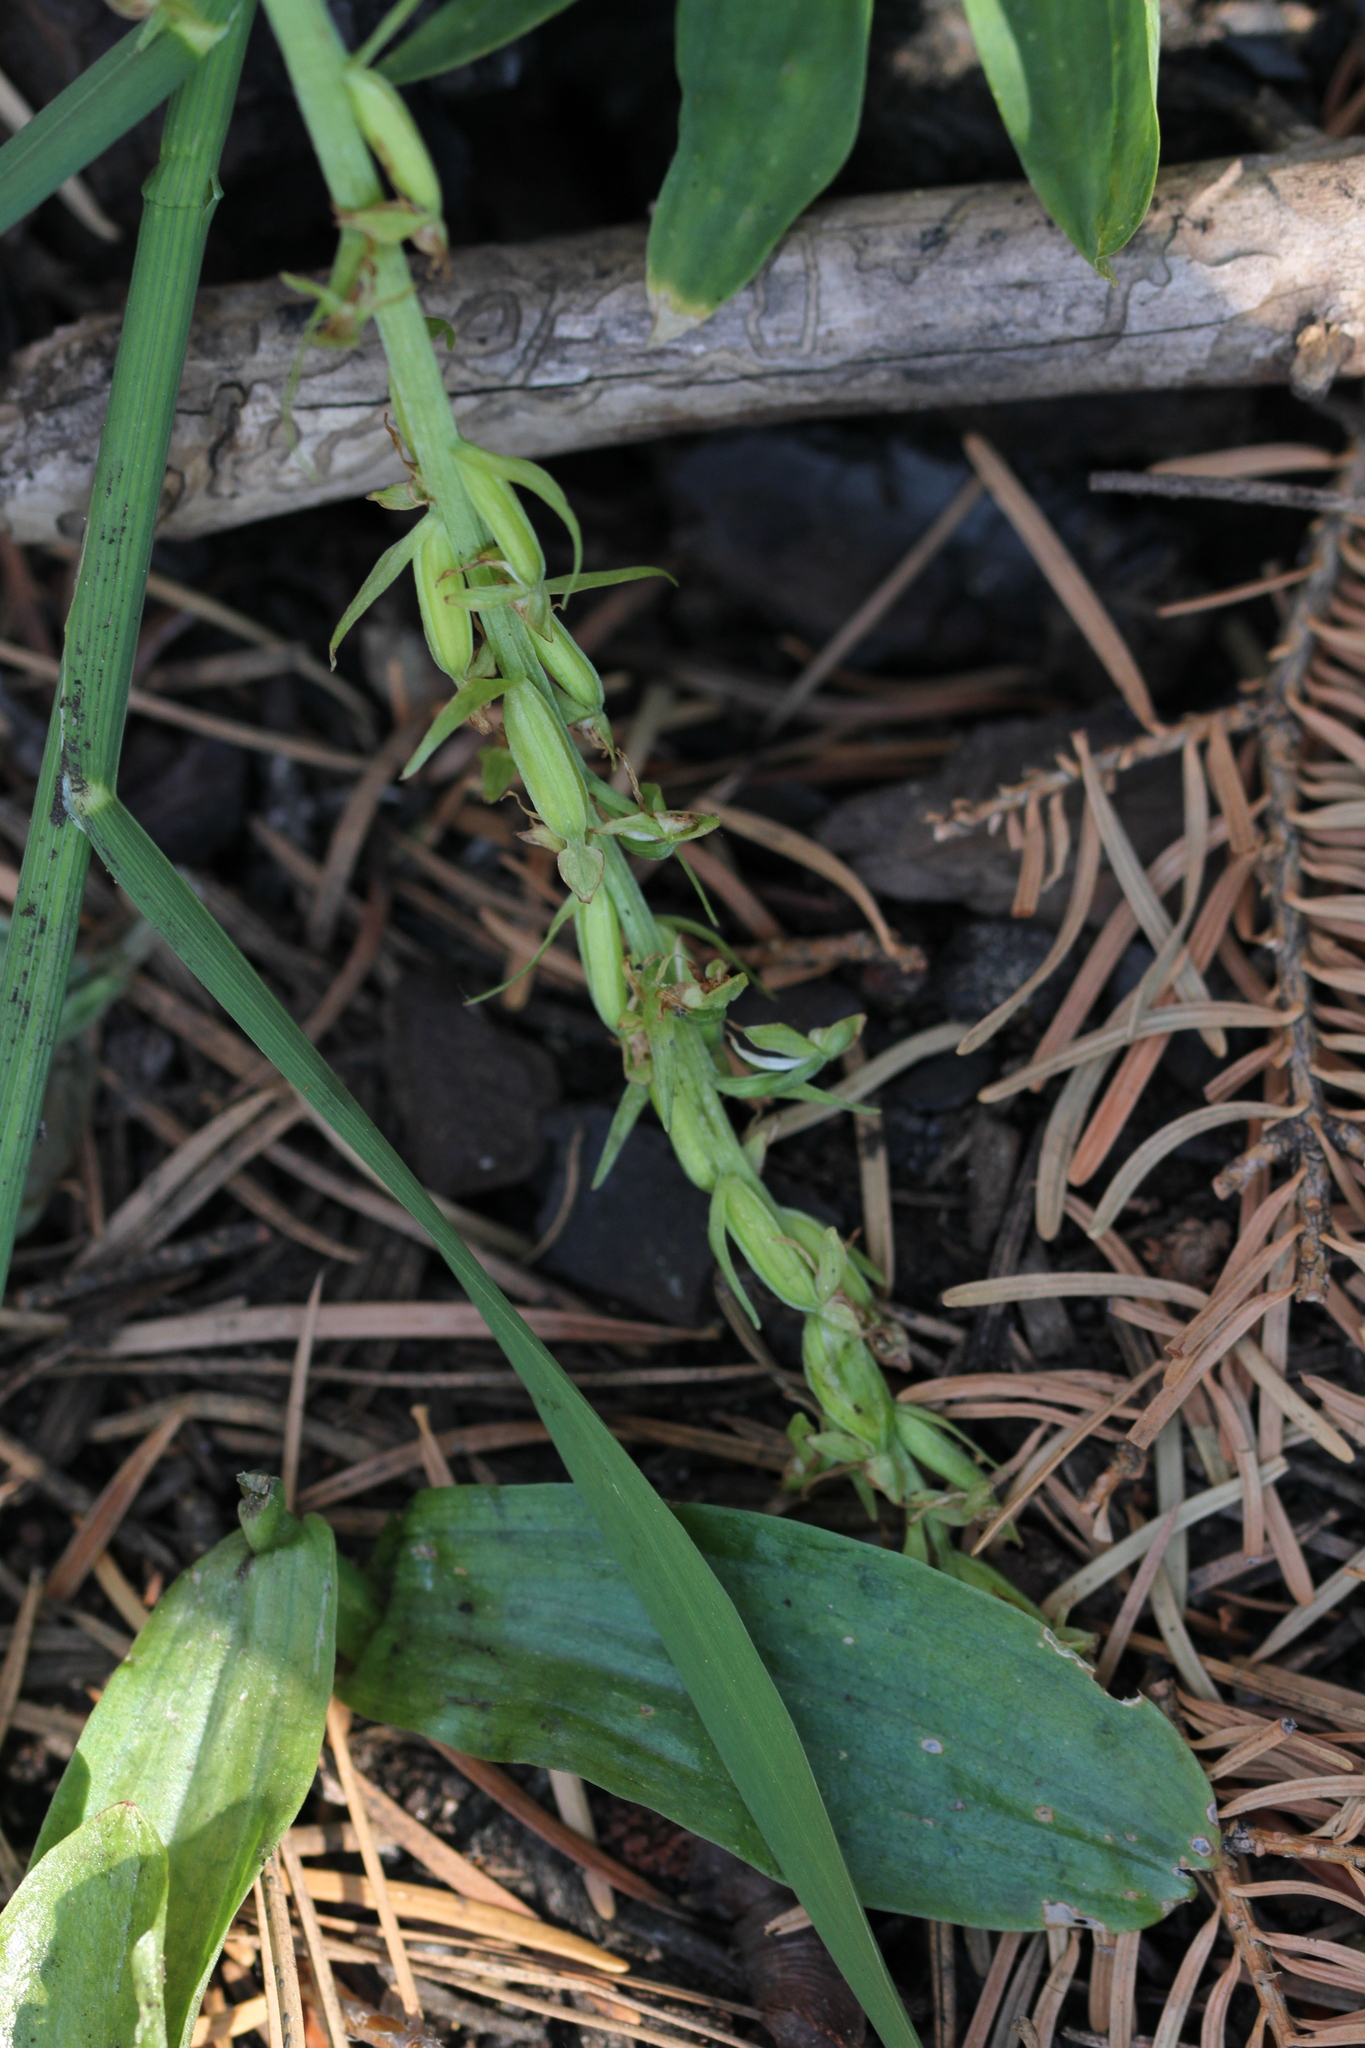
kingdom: Plantae
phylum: Tracheophyta
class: Liliopsida
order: Asparagales
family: Orchidaceae
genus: Platanthera
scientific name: Platanthera sparsiflora
